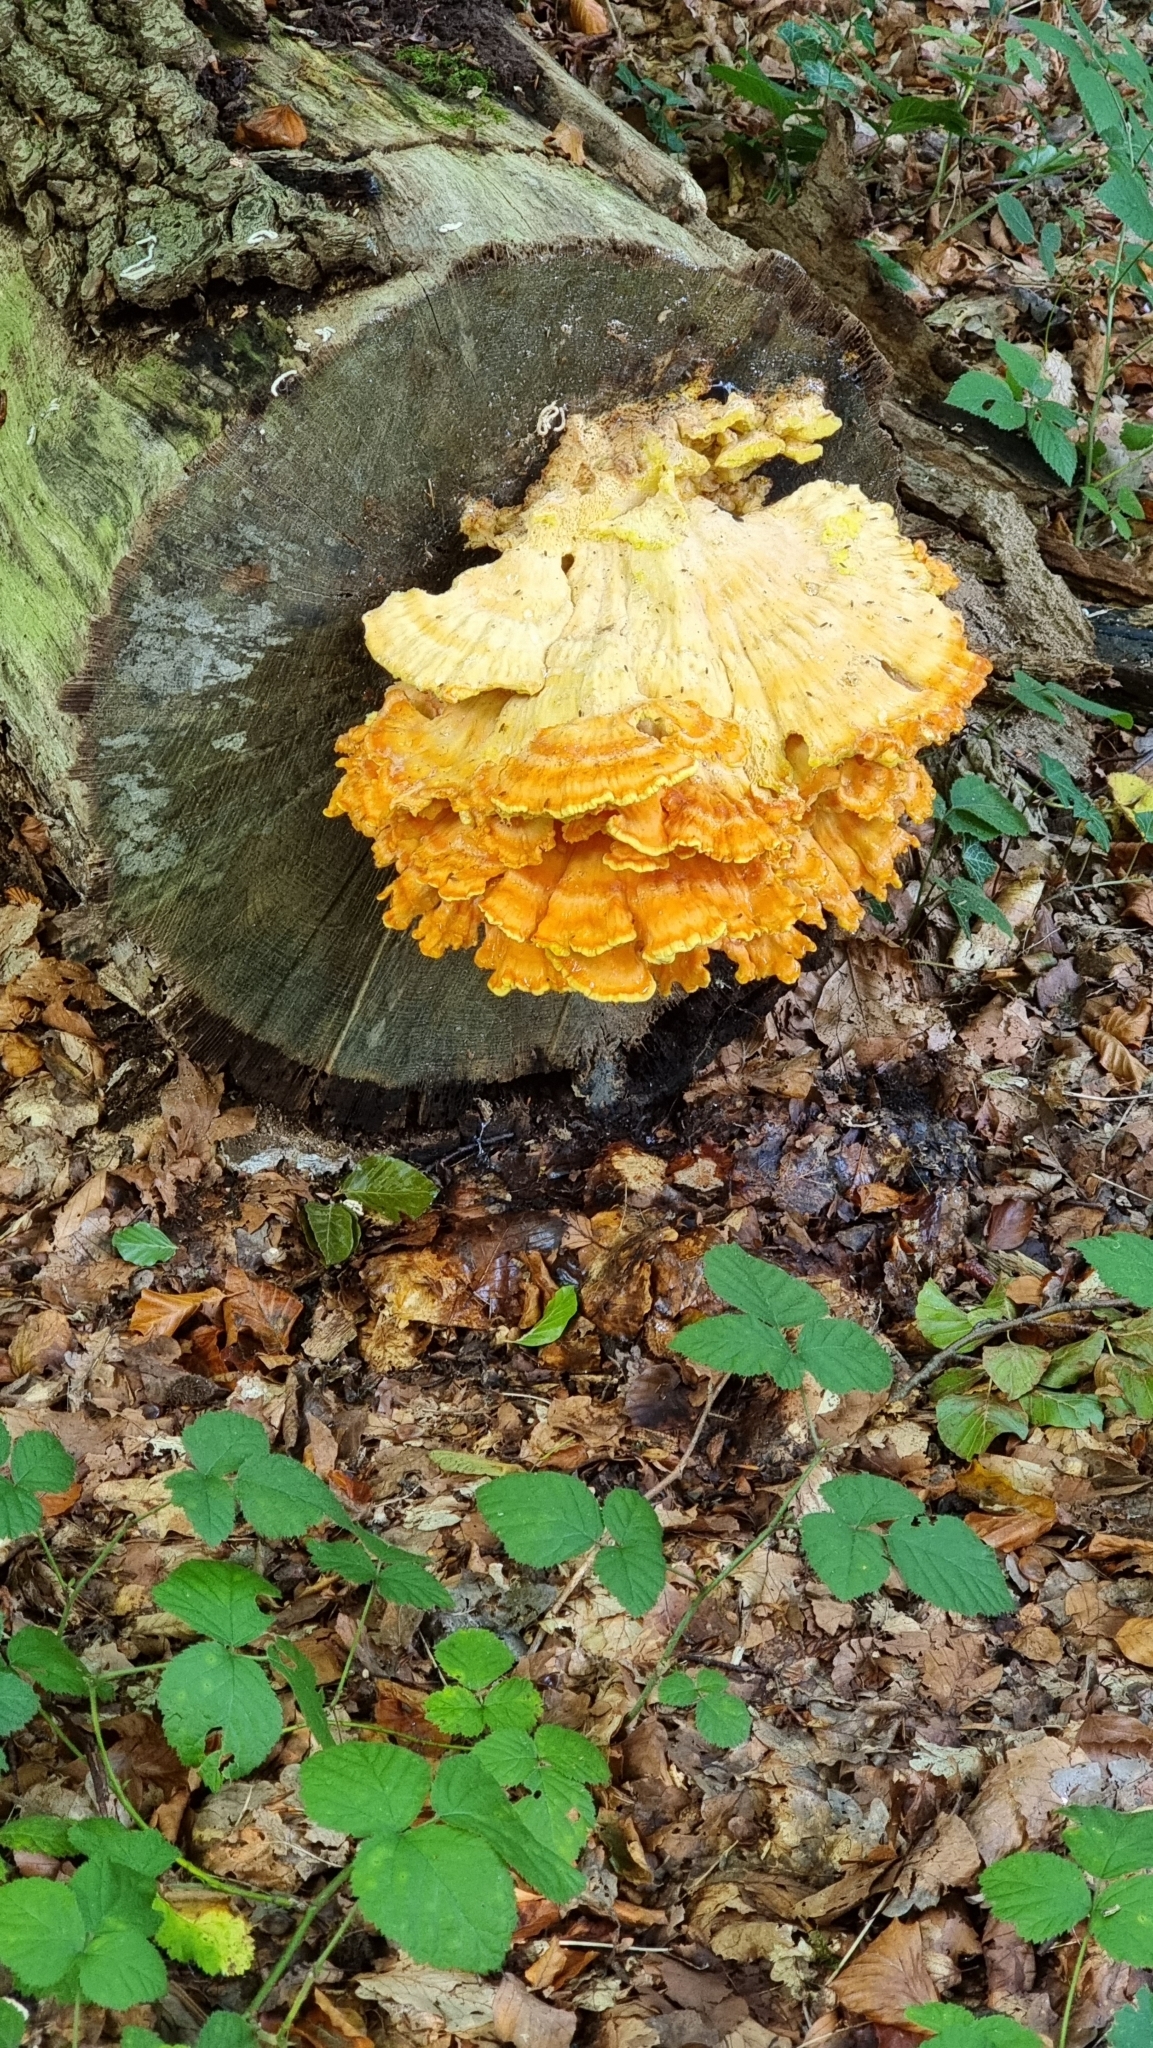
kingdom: Fungi
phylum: Basidiomycota
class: Agaricomycetes
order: Polyporales
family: Laetiporaceae
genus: Laetiporus
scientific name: Laetiporus sulphureus
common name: Chicken of the woods
